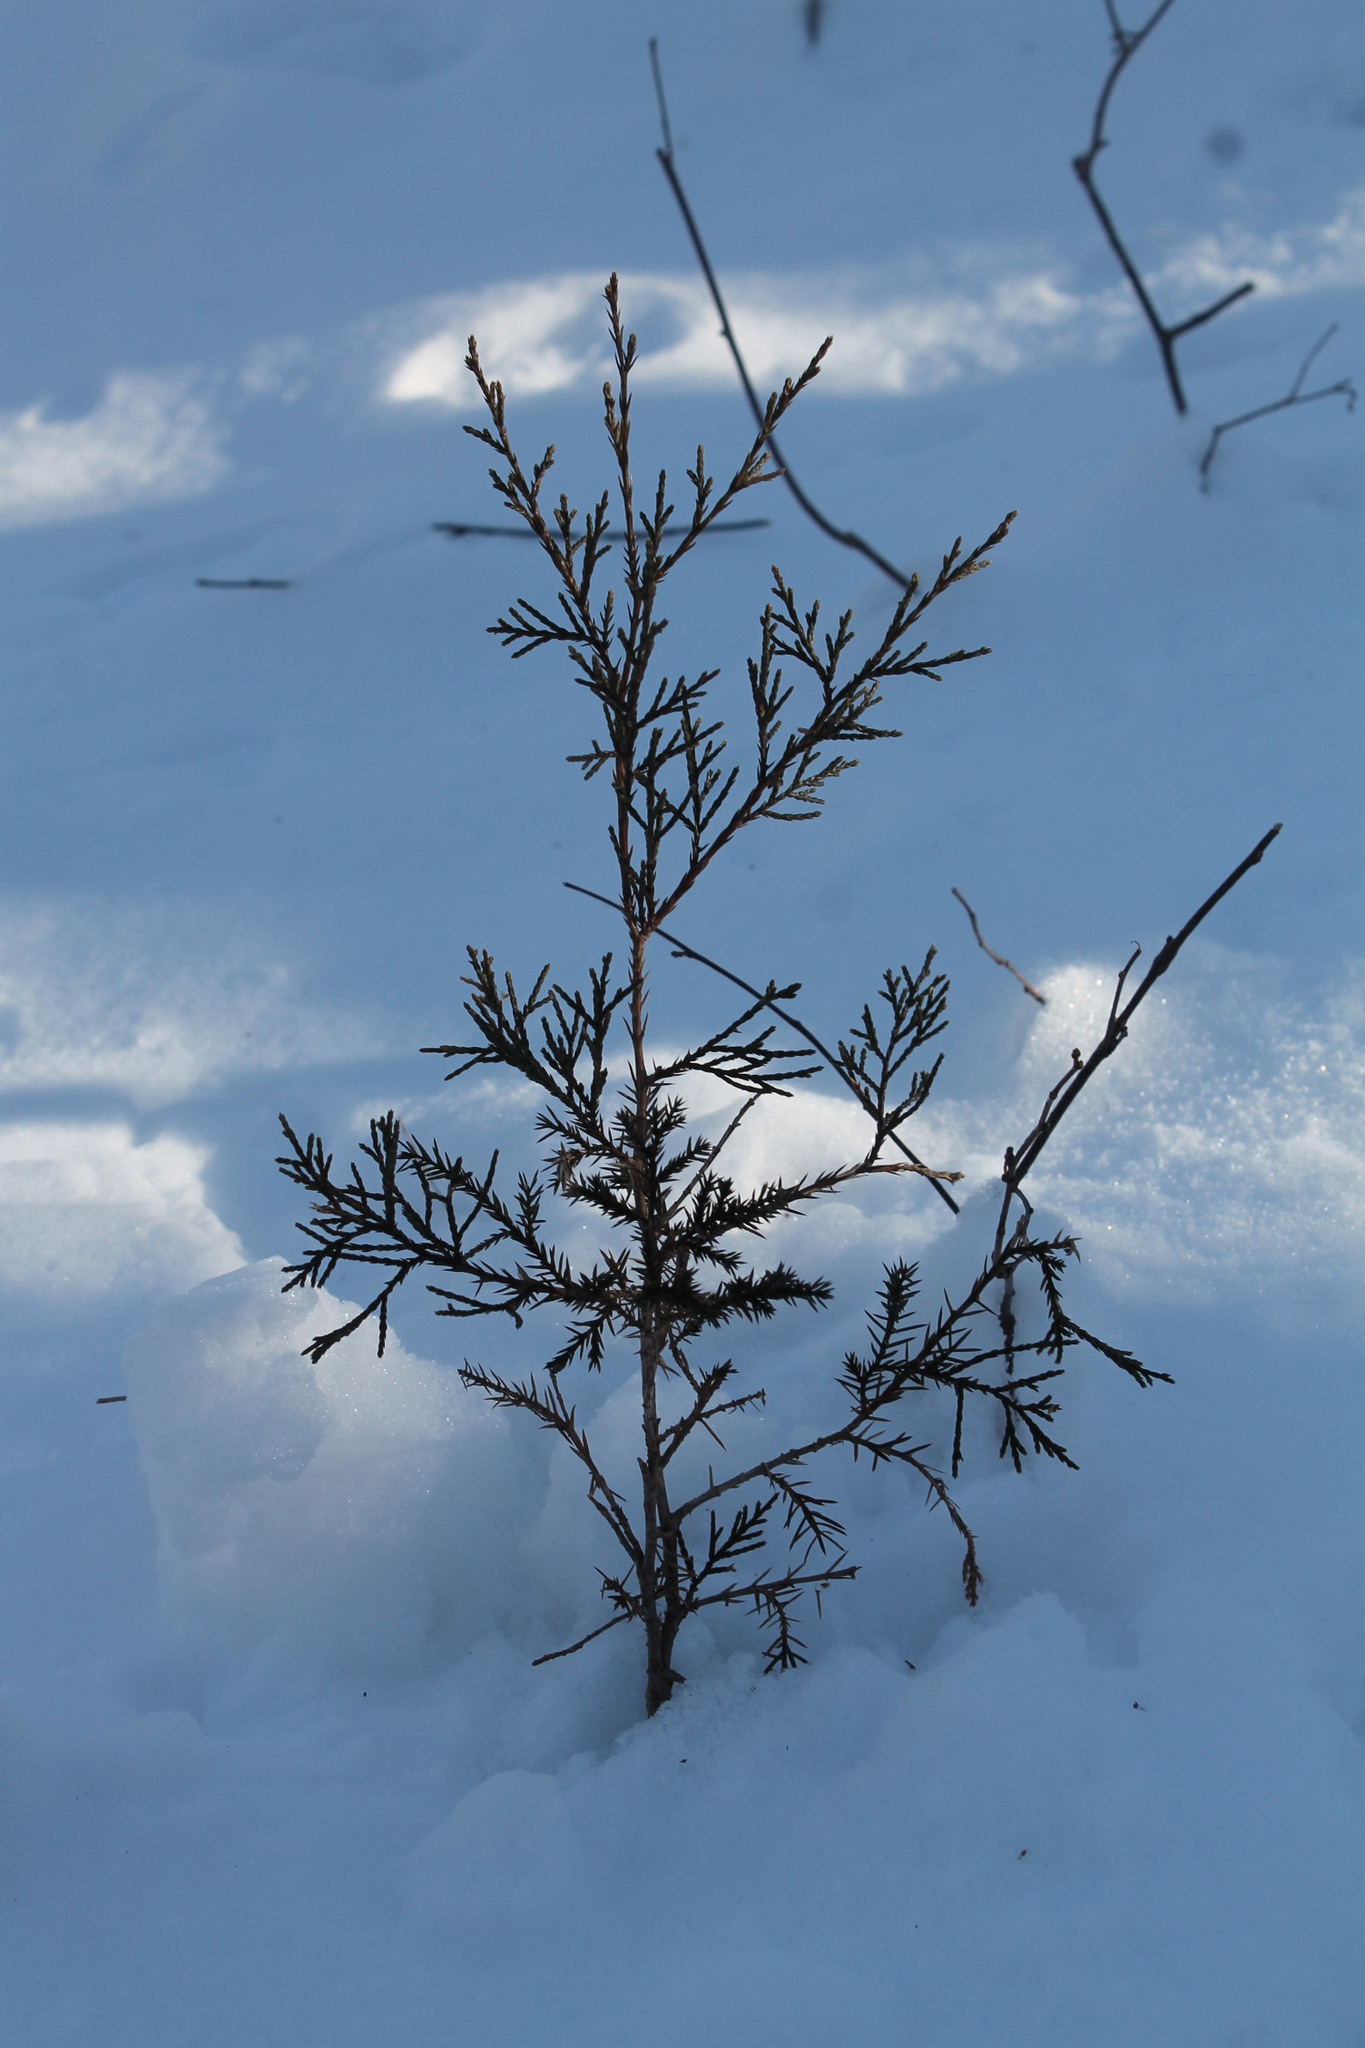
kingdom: Plantae
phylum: Tracheophyta
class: Pinopsida
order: Pinales
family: Cupressaceae
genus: Juniperus
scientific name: Juniperus virginiana
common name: Red juniper
